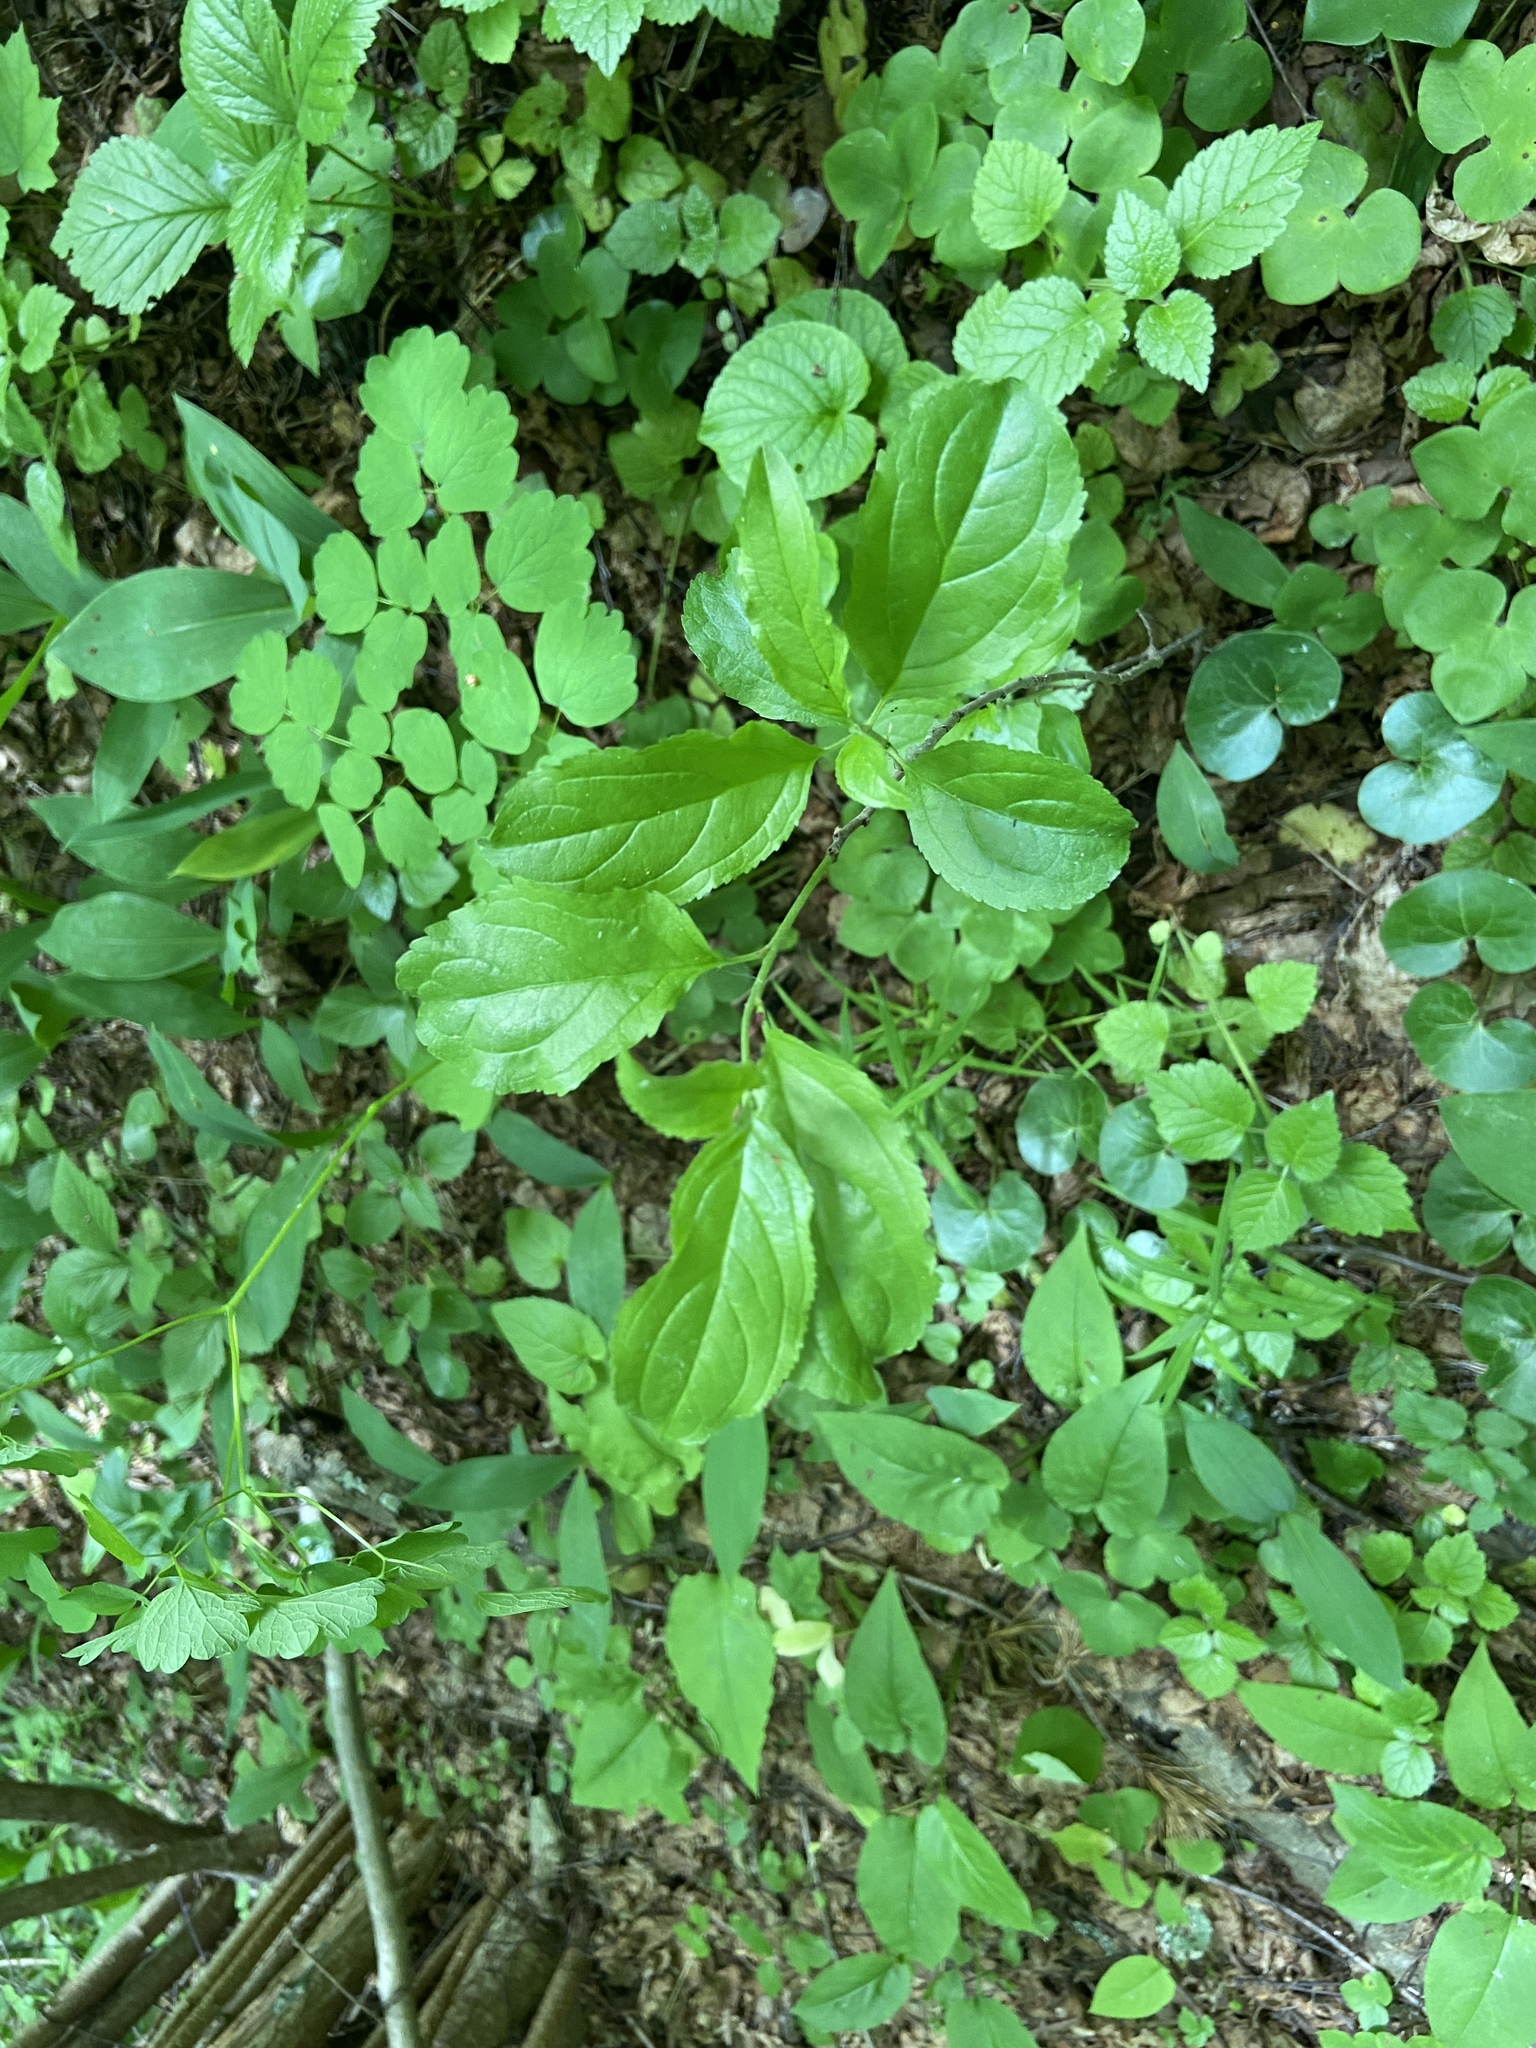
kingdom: Plantae
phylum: Tracheophyta
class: Magnoliopsida
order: Rosales
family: Rhamnaceae
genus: Rhamnus
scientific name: Rhamnus cathartica
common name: Common buckthorn
